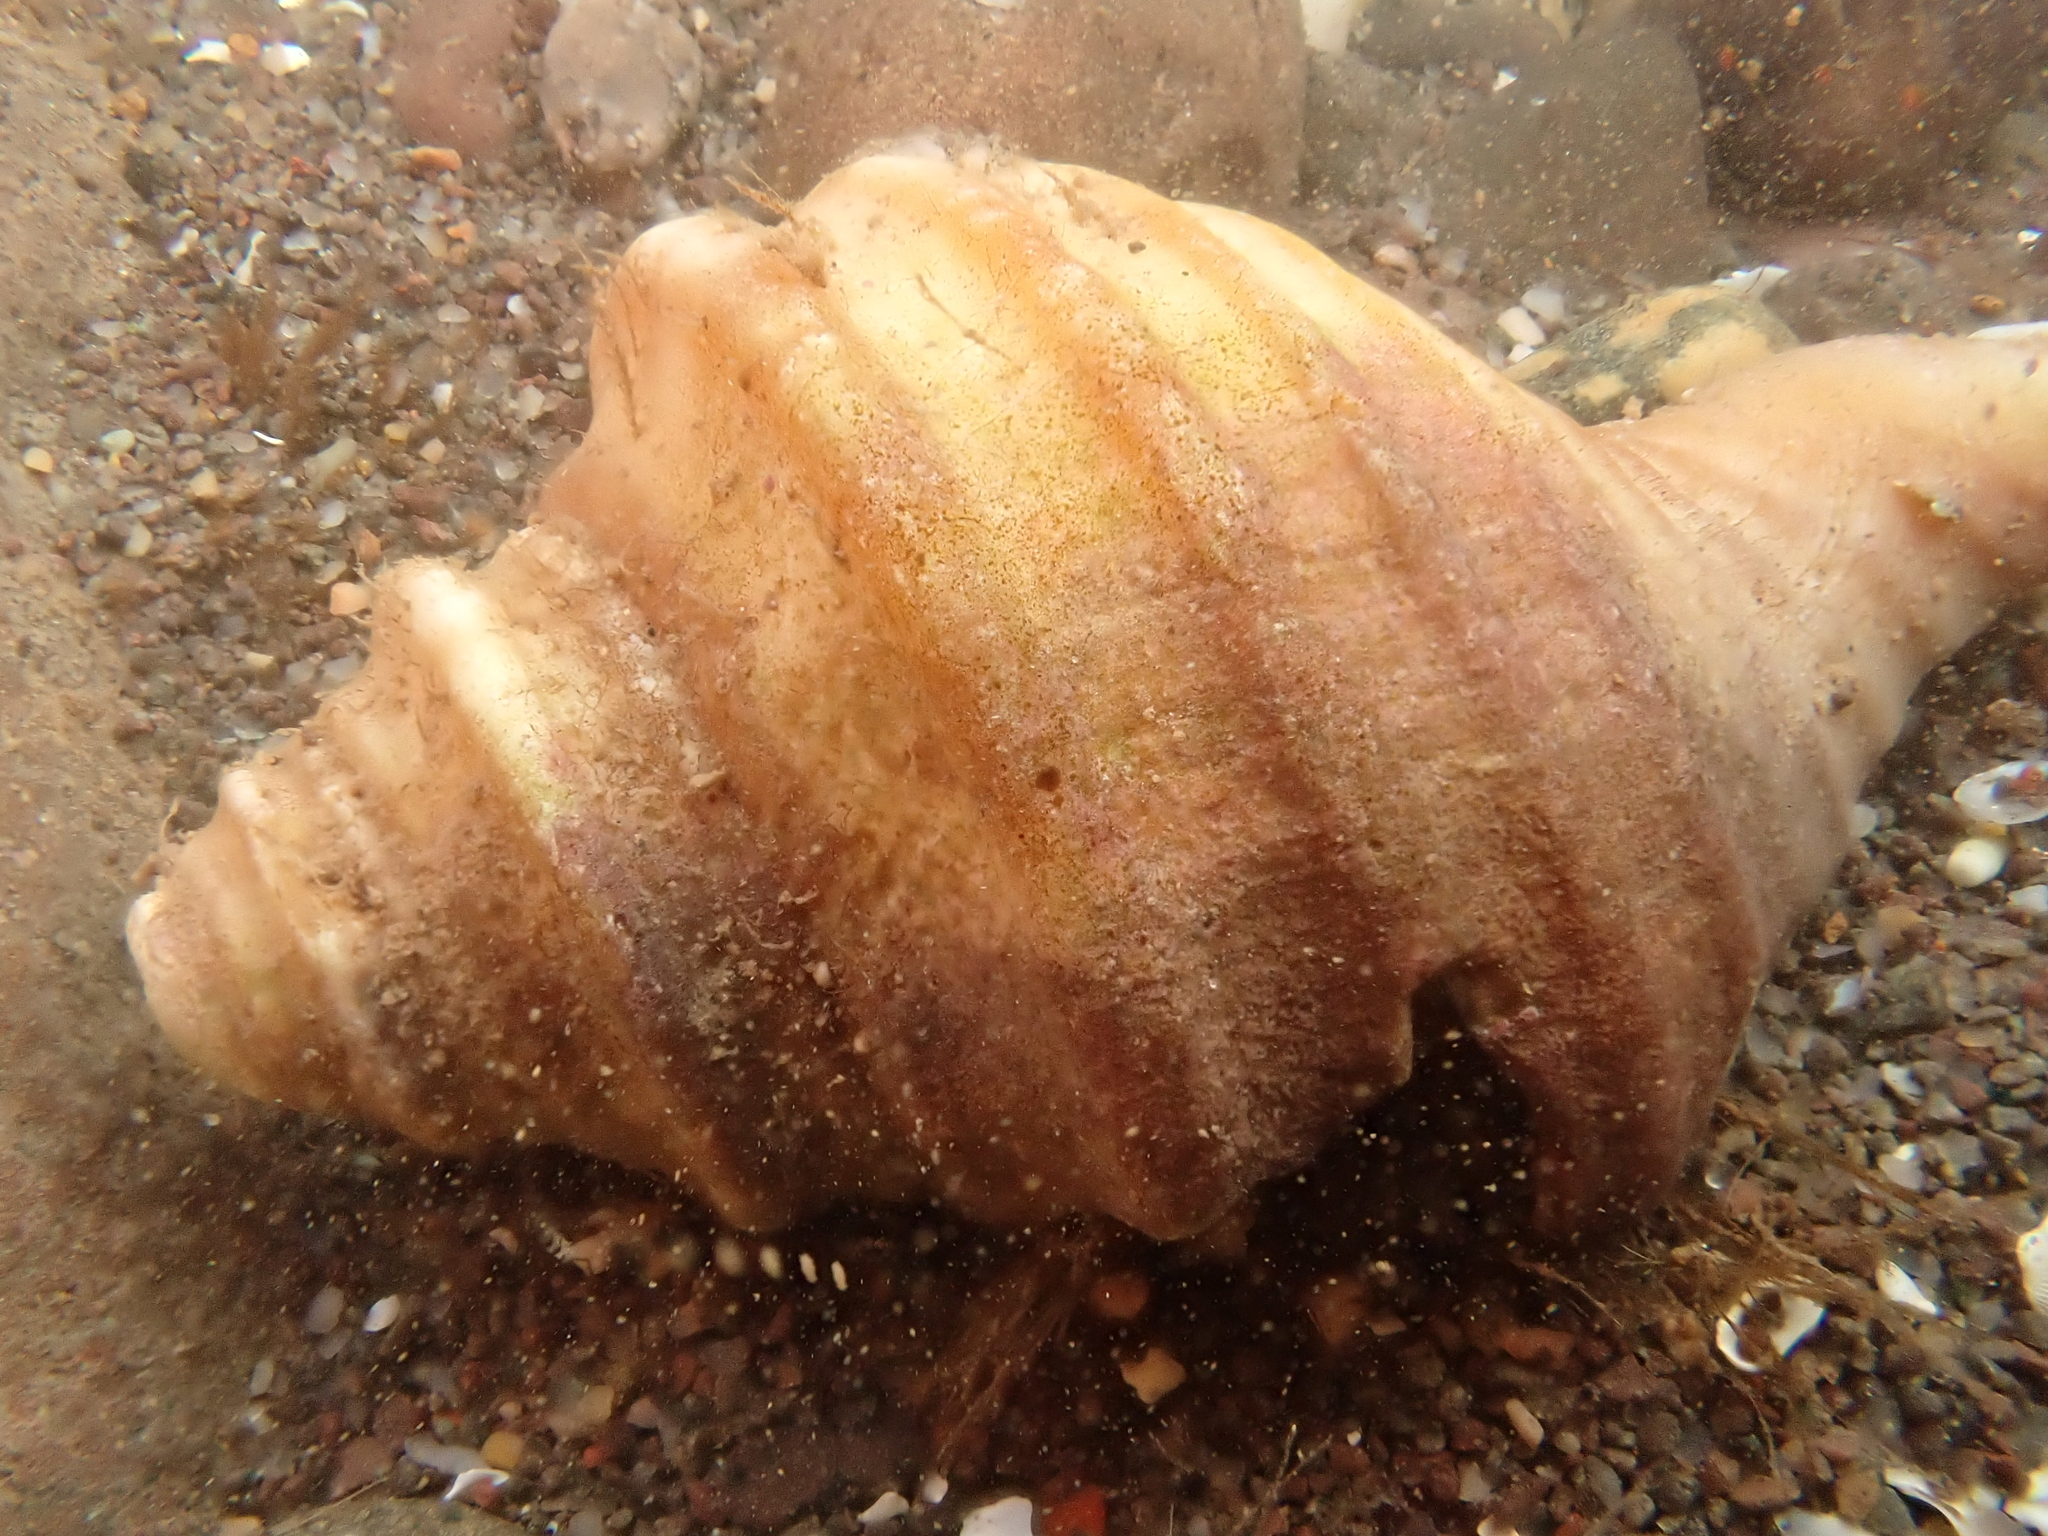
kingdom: Animalia
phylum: Mollusca
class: Gastropoda
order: Neogastropoda
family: Buccinidae
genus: Neptunea
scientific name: Neptunea decemcostata
